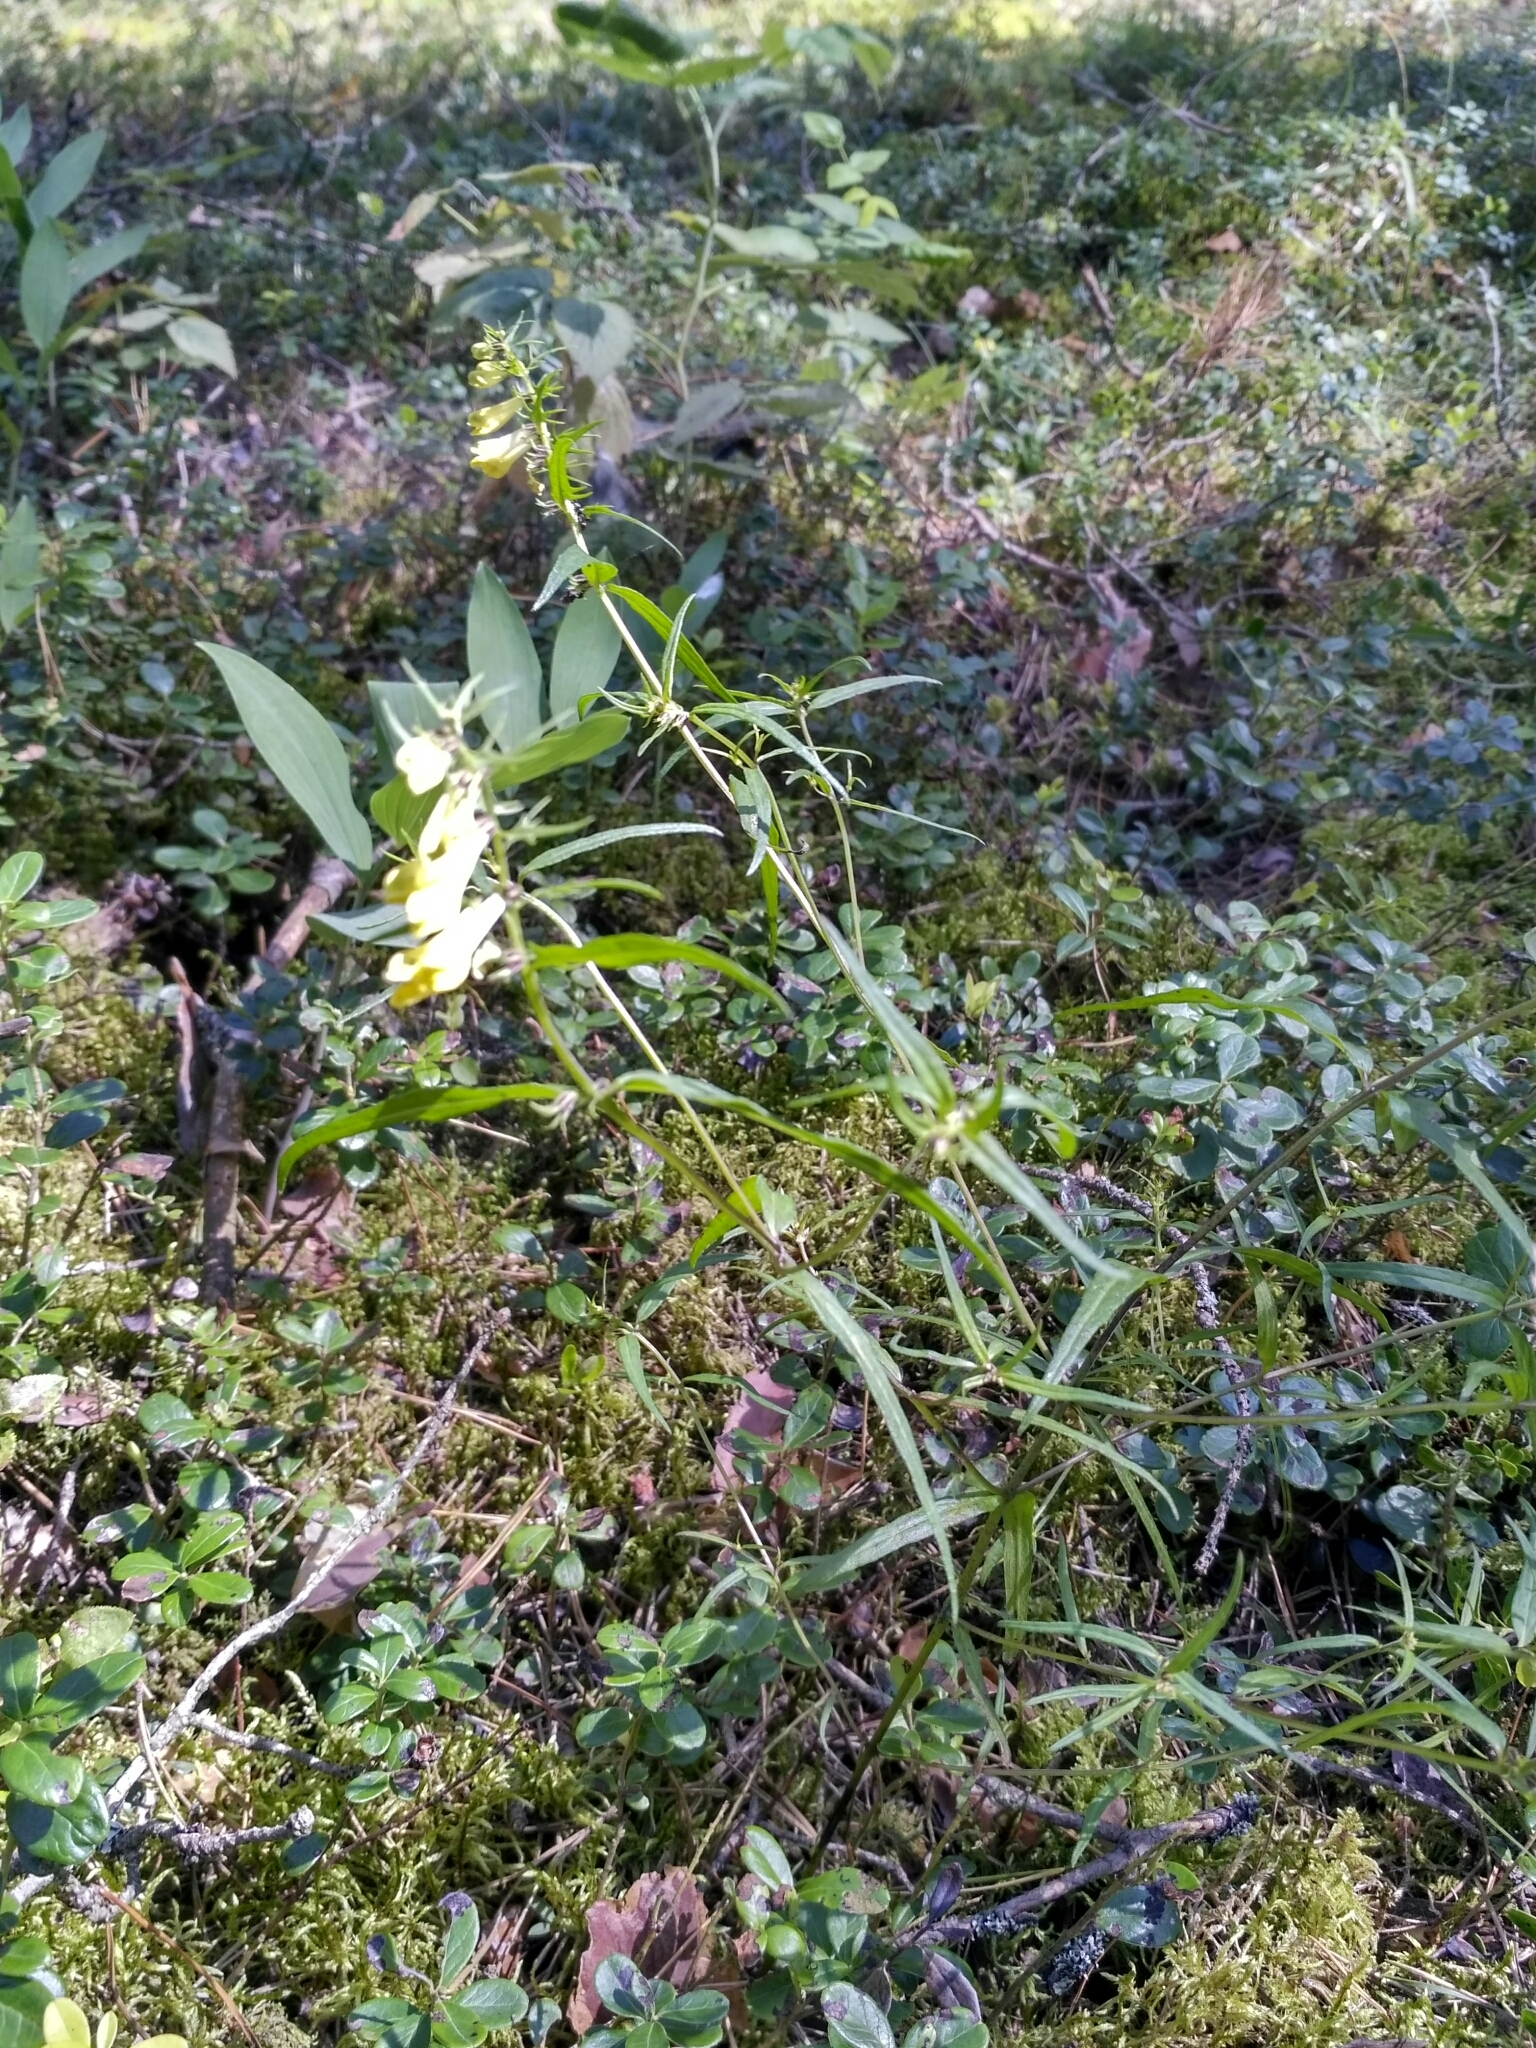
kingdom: Plantae
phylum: Tracheophyta
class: Magnoliopsida
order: Lamiales
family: Orobanchaceae
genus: Melampyrum
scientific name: Melampyrum pratense
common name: Common cow-wheat
